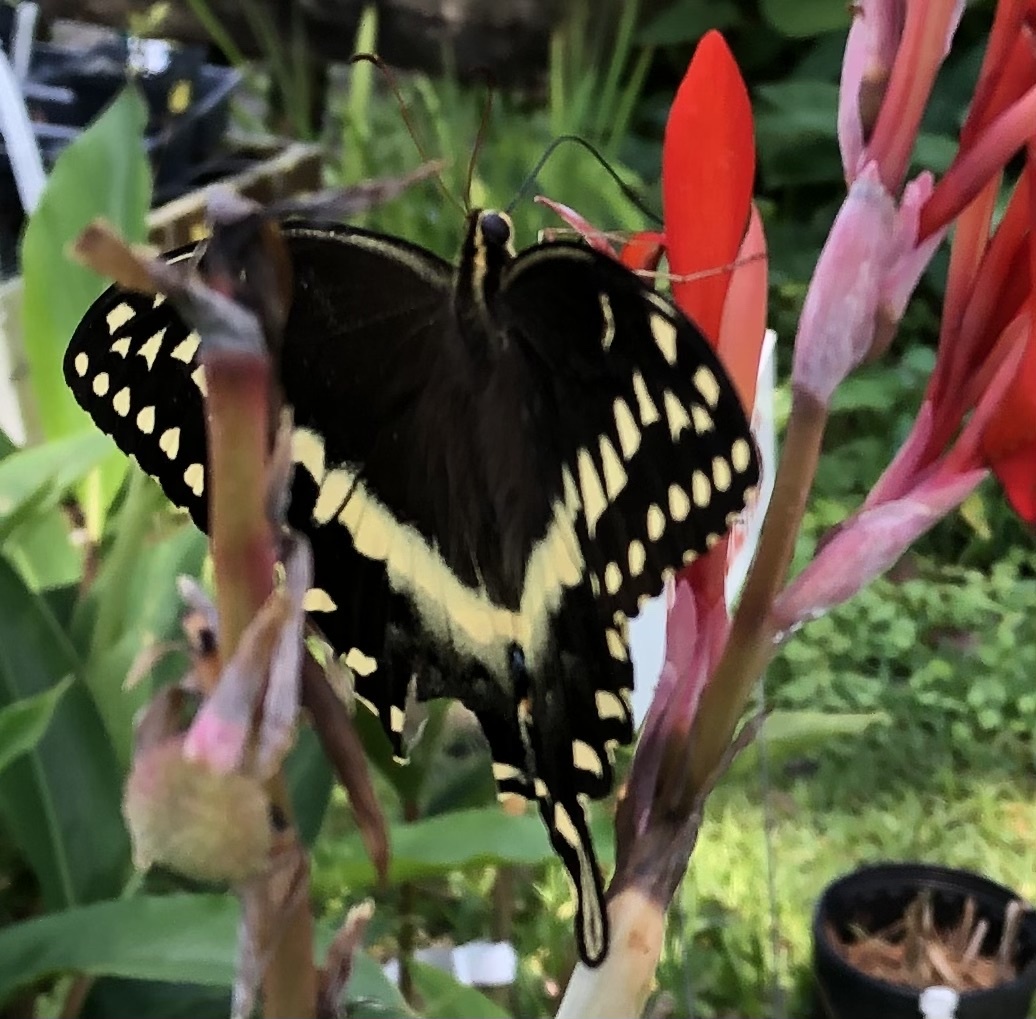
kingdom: Animalia
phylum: Arthropoda
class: Insecta
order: Lepidoptera
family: Papilionidae
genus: Papilio
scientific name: Papilio palamedes
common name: Palamedes swallowtail
